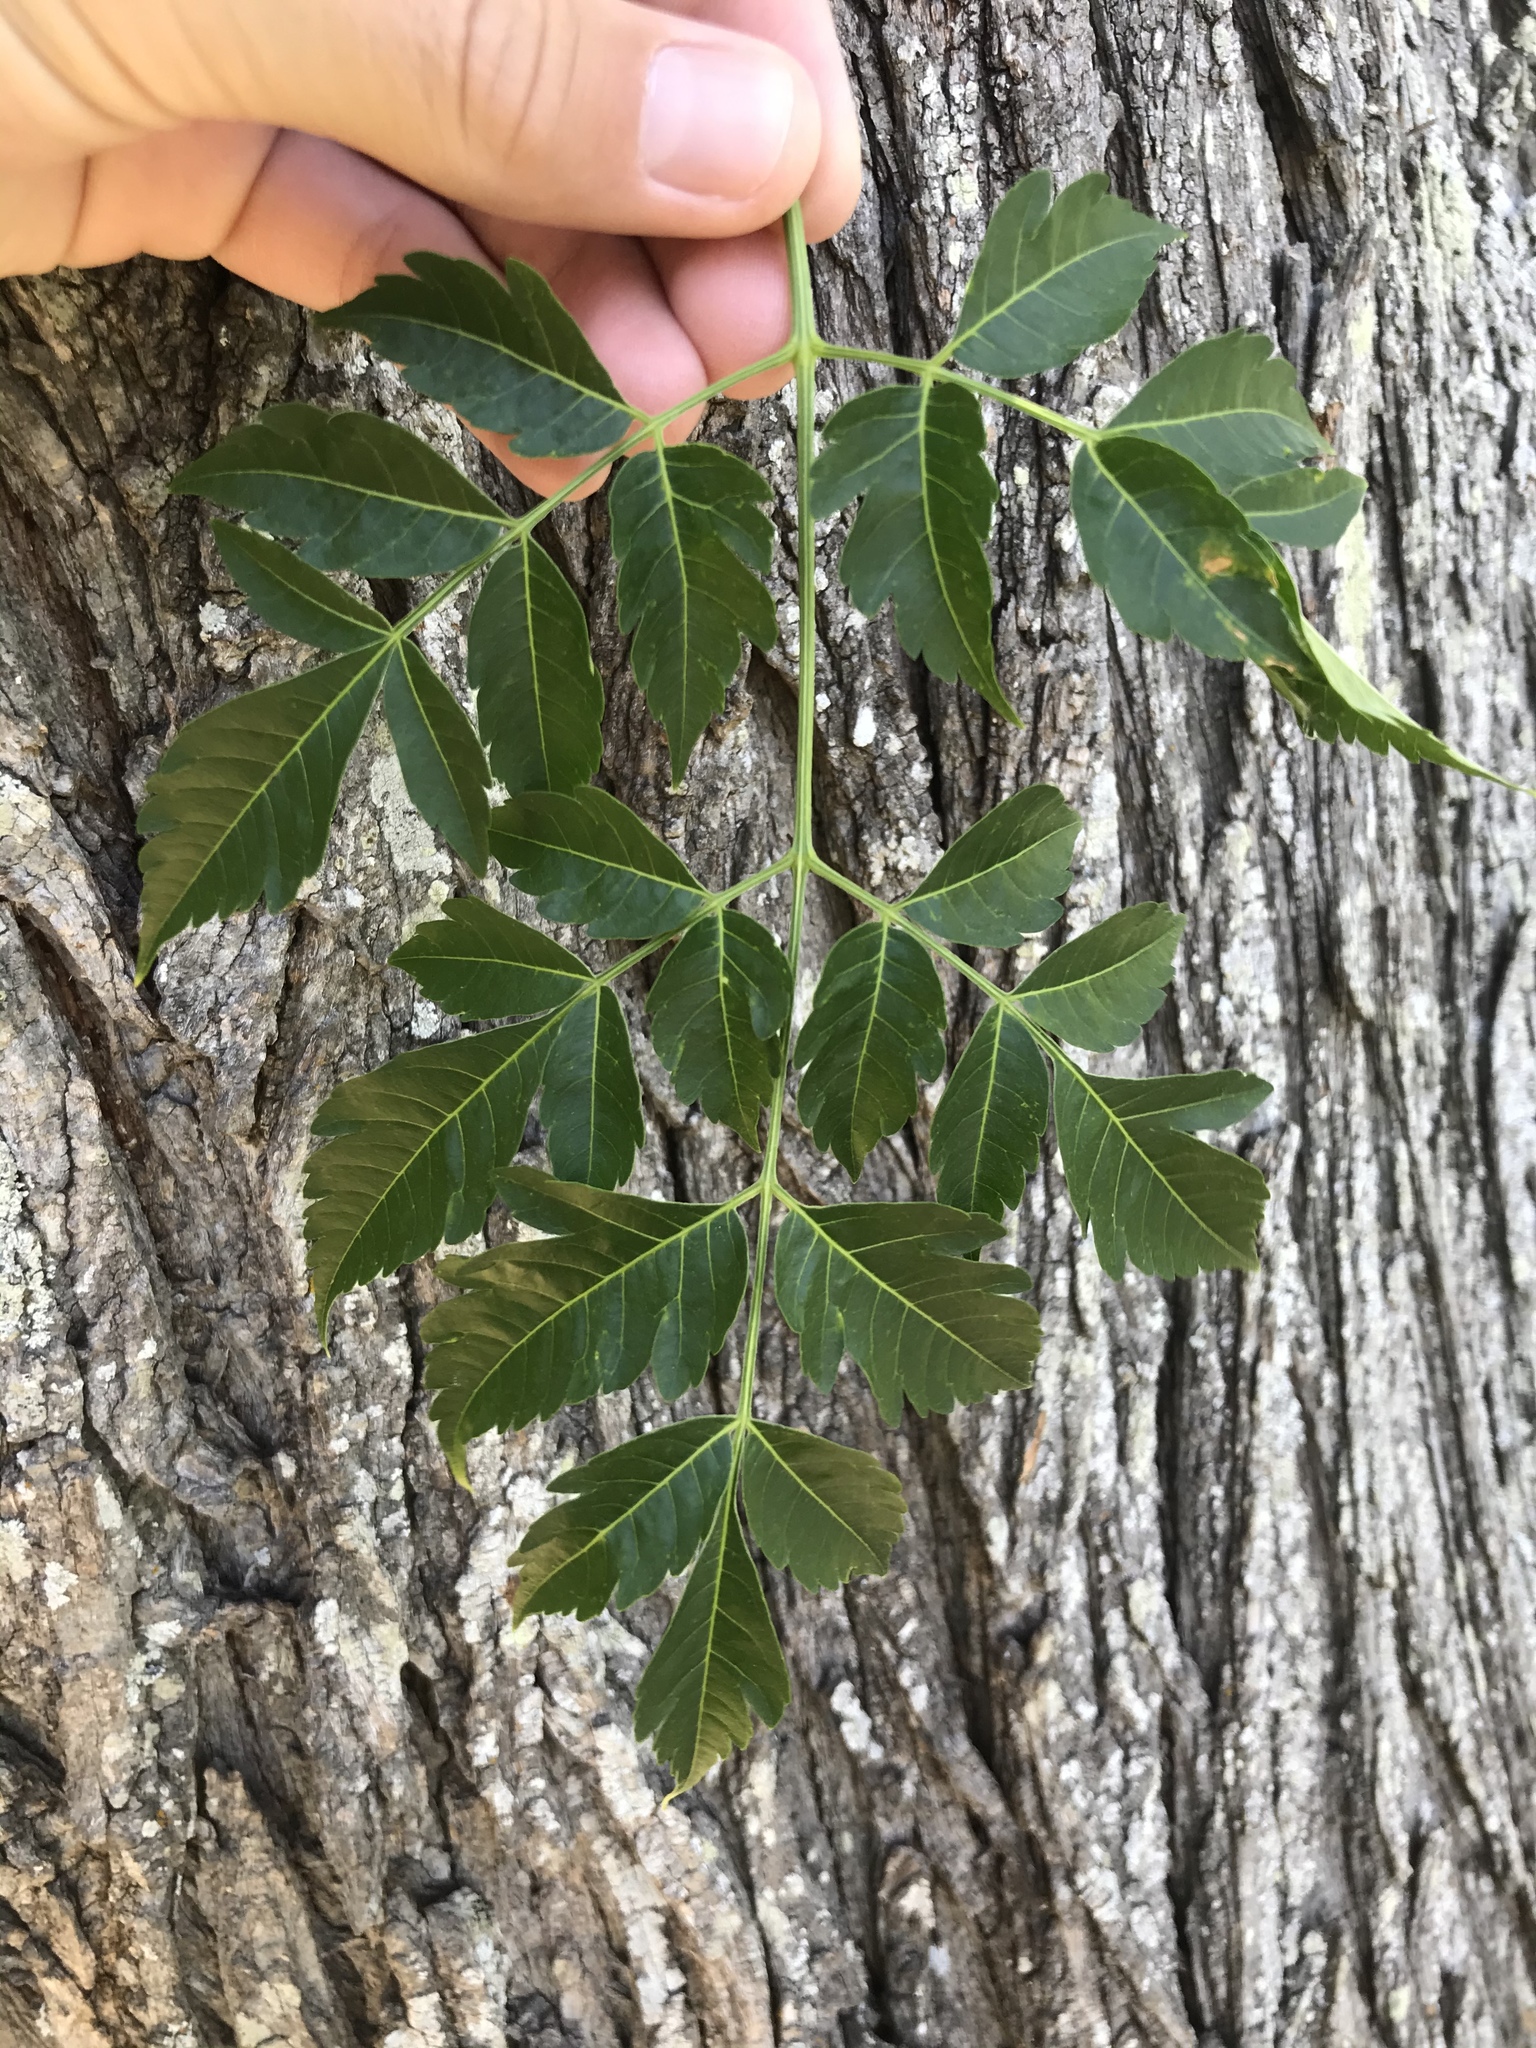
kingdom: Plantae
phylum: Tracheophyta
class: Magnoliopsida
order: Sapindales
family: Meliaceae
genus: Melia
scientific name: Melia azedarach
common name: Chinaberrytree
